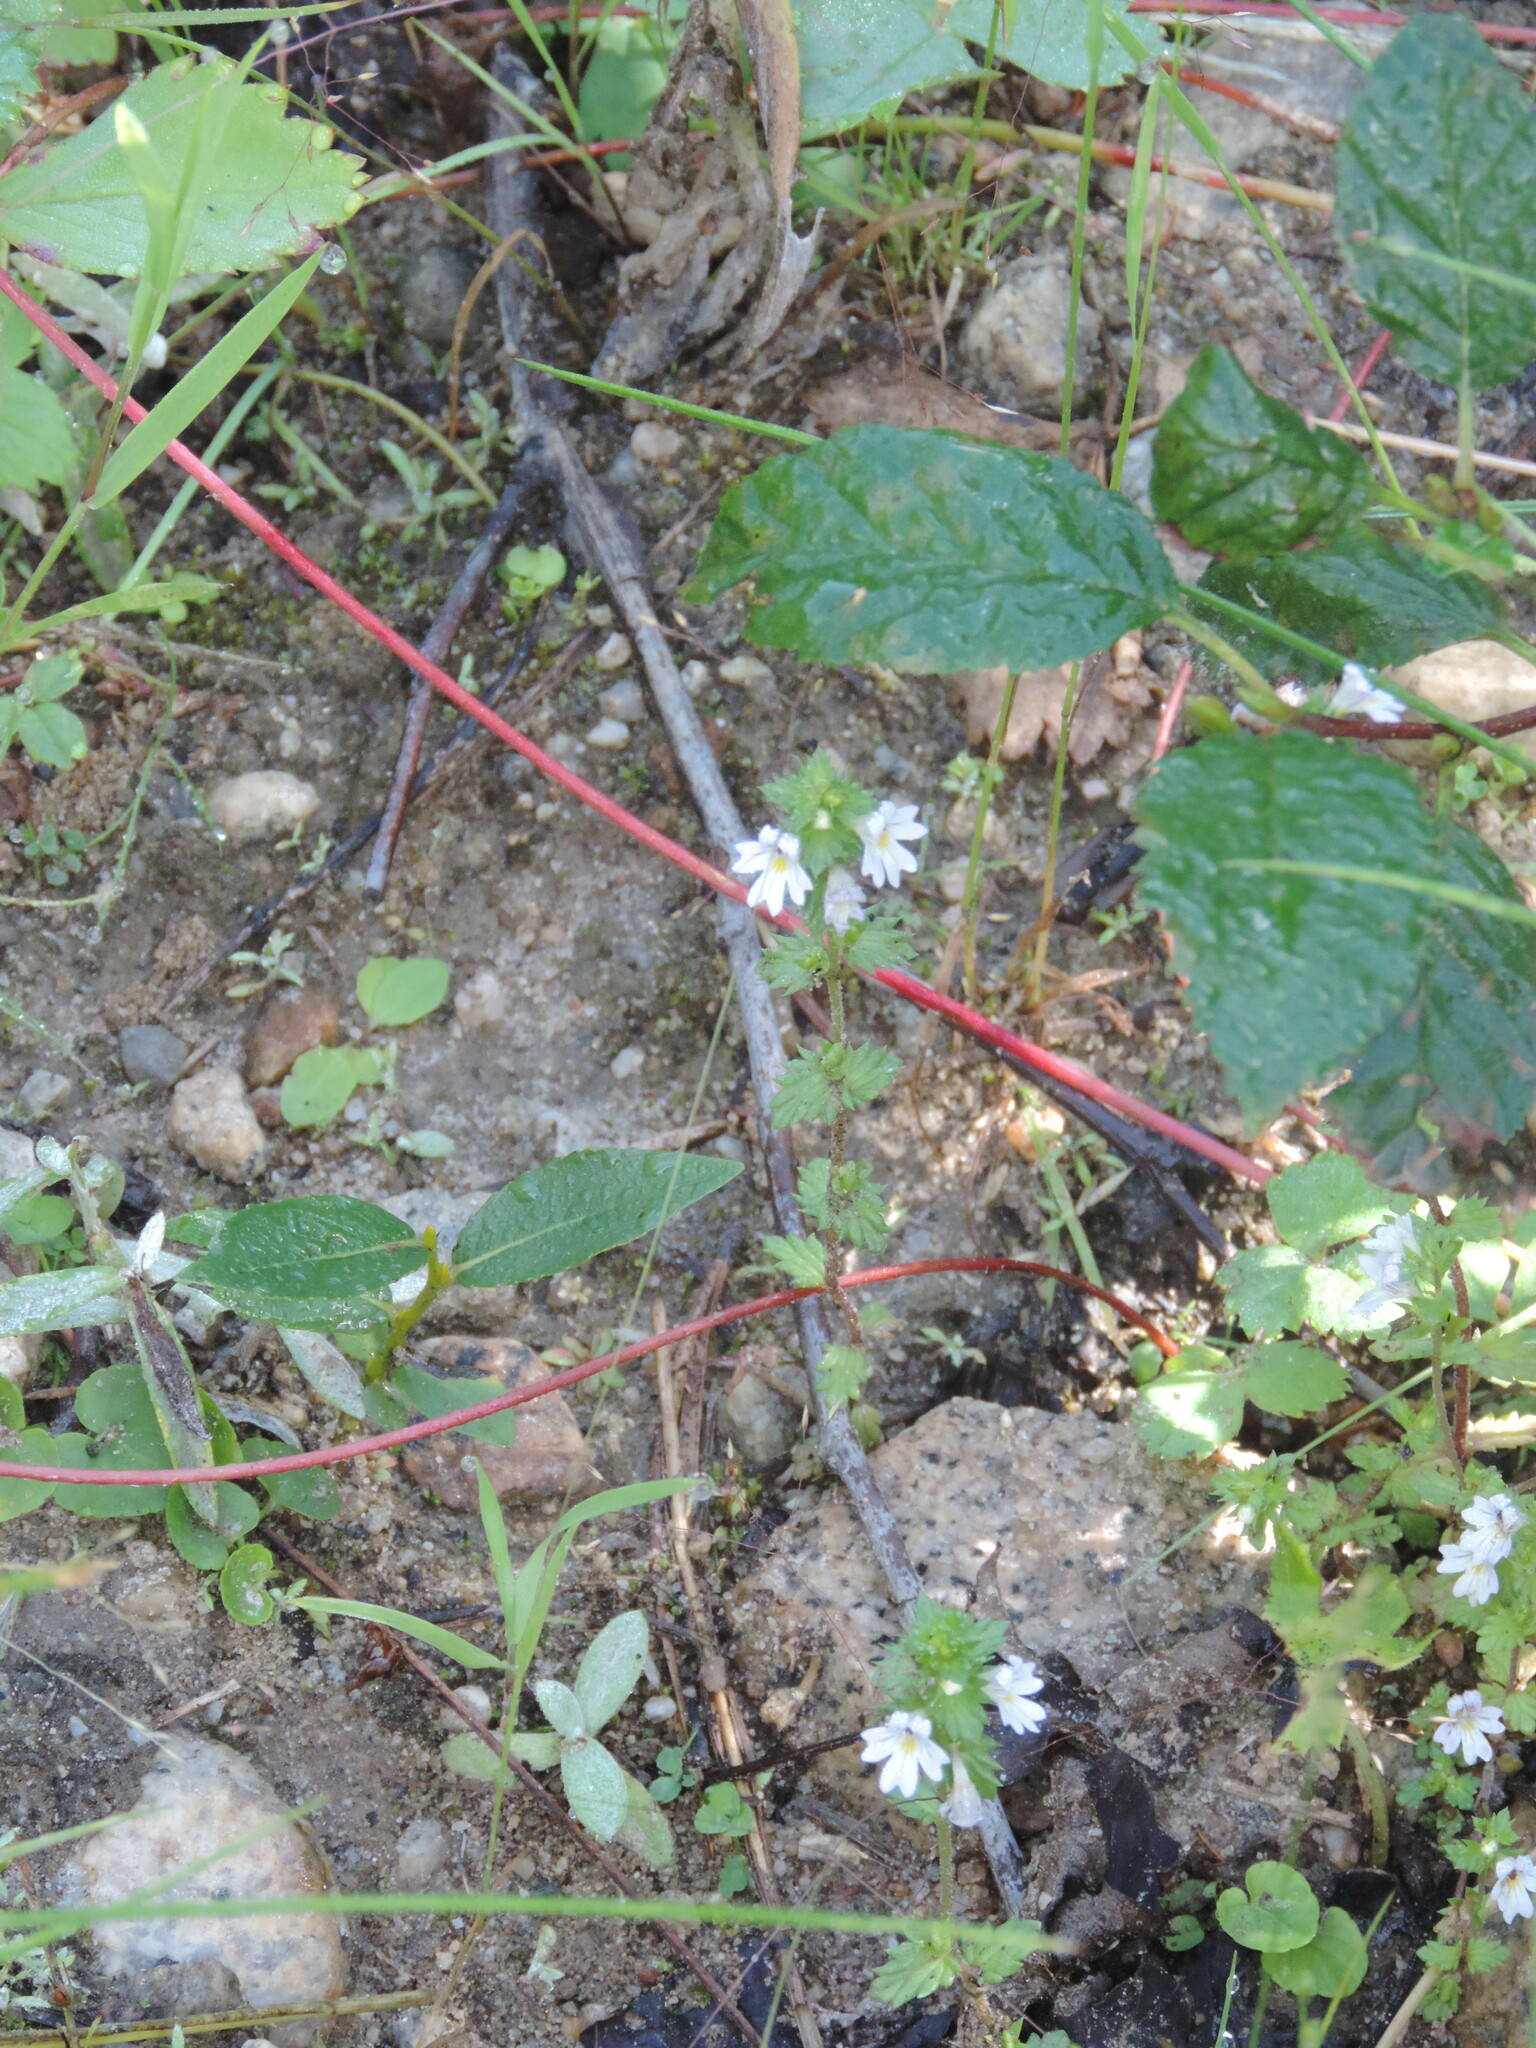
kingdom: Plantae
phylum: Tracheophyta
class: Magnoliopsida
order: Lamiales
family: Orobanchaceae
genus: Euphrasia
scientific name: Euphrasia nemorosa
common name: Common eyebright
